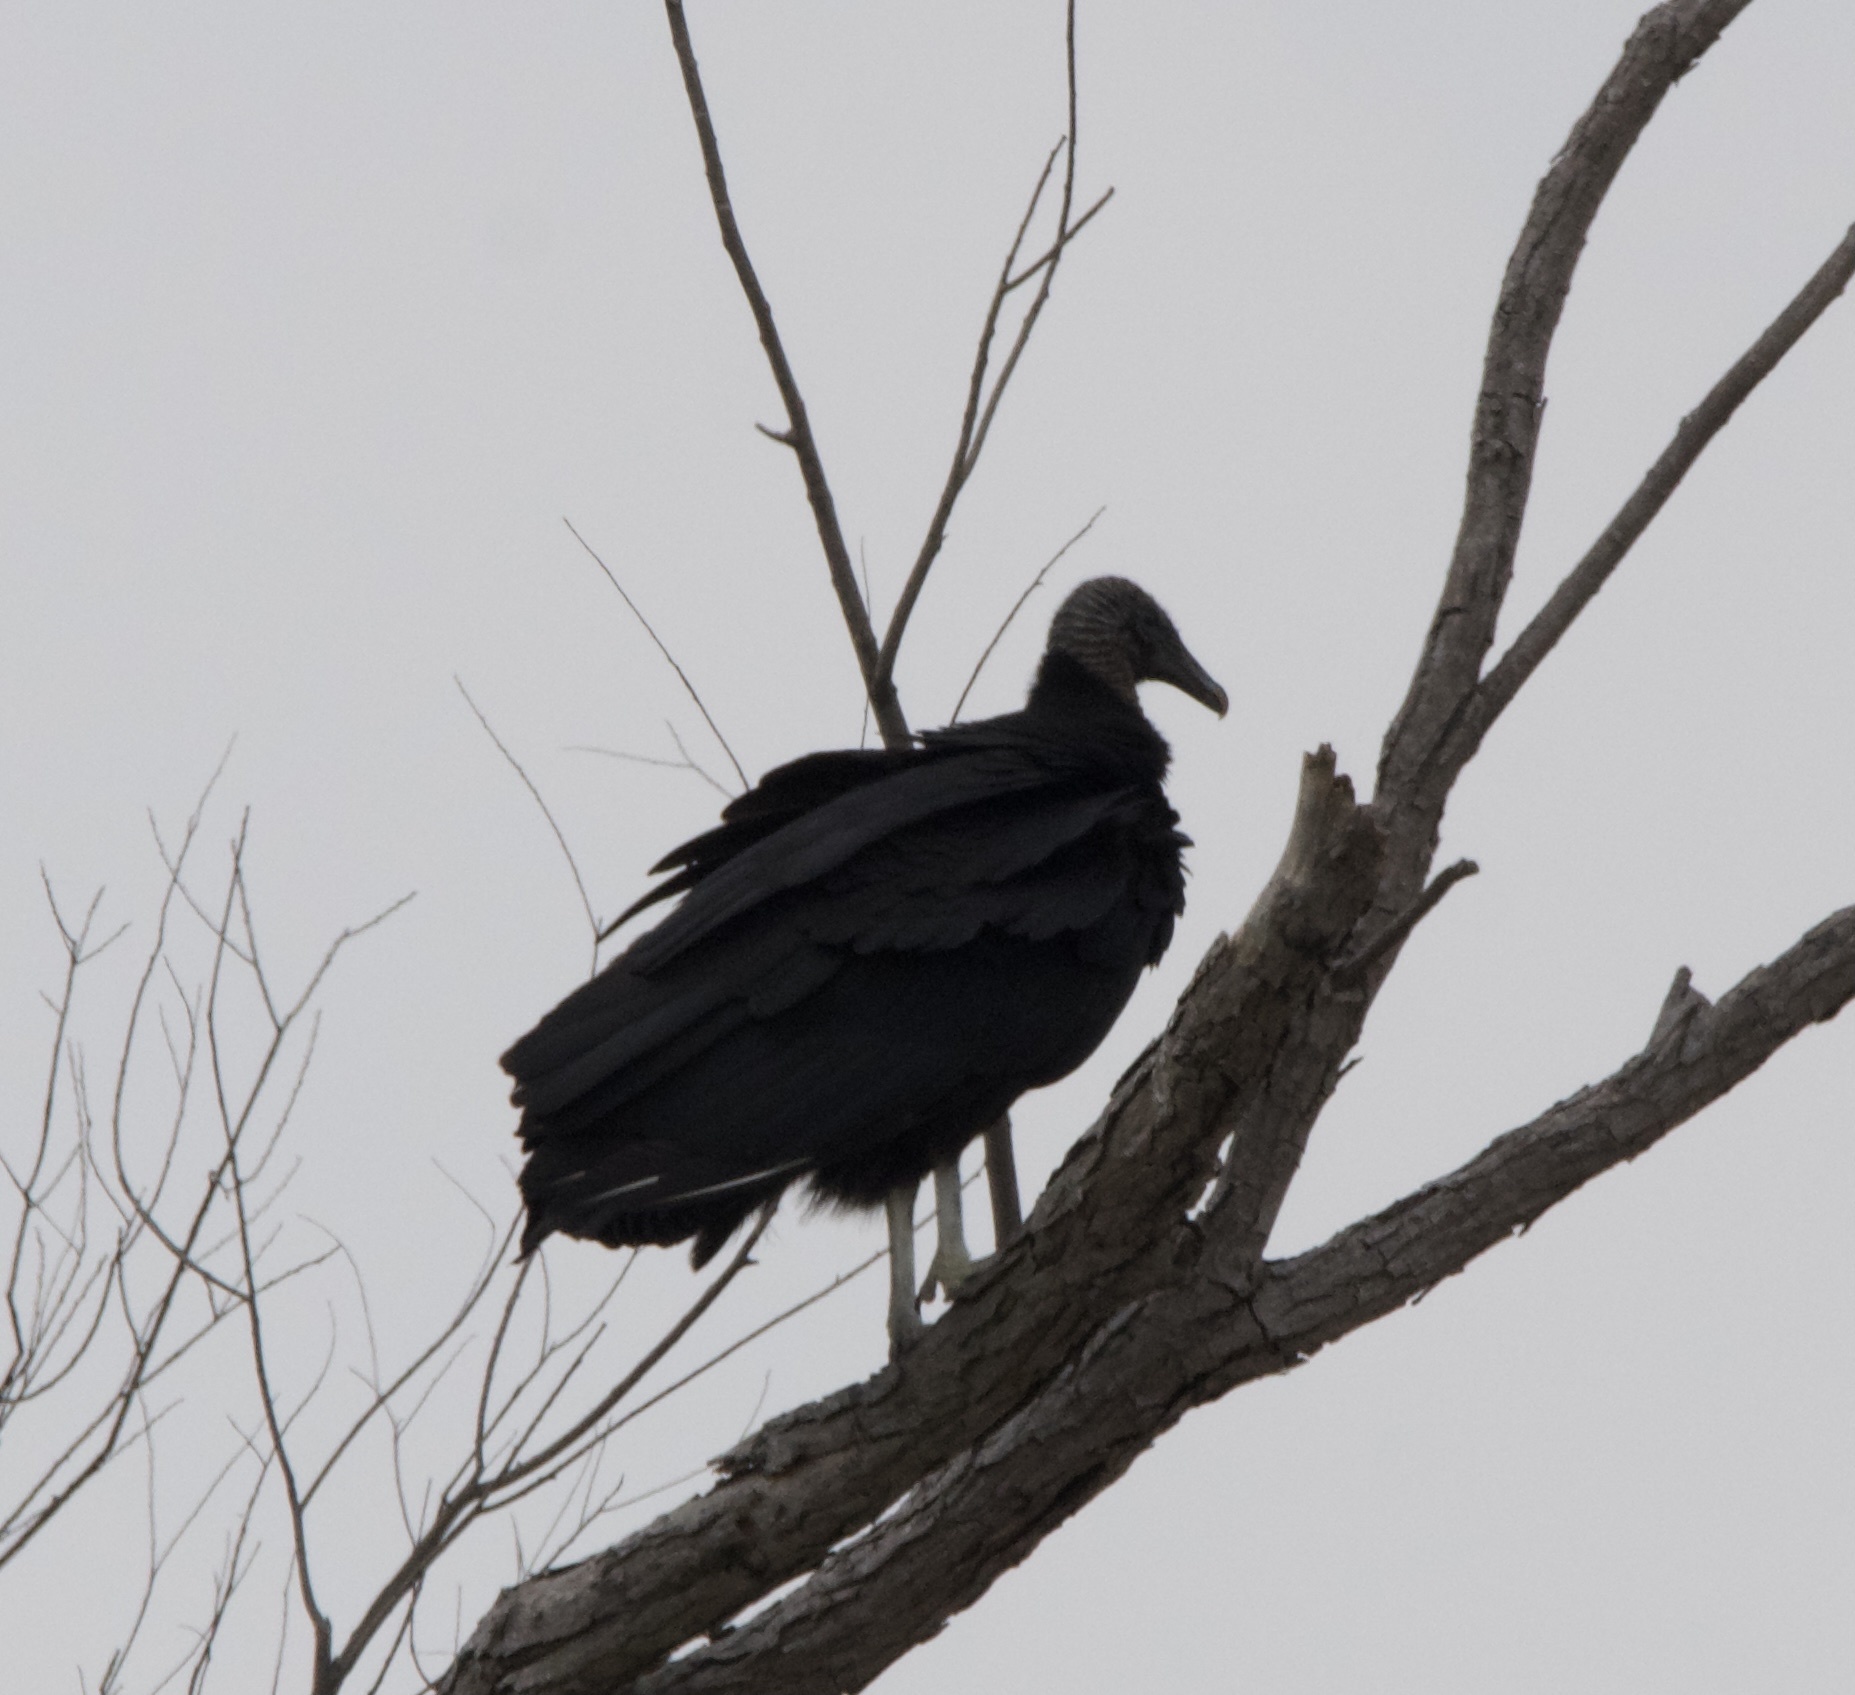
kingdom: Animalia
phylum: Chordata
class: Aves
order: Accipitriformes
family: Cathartidae
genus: Coragyps
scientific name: Coragyps atratus
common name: Black vulture
